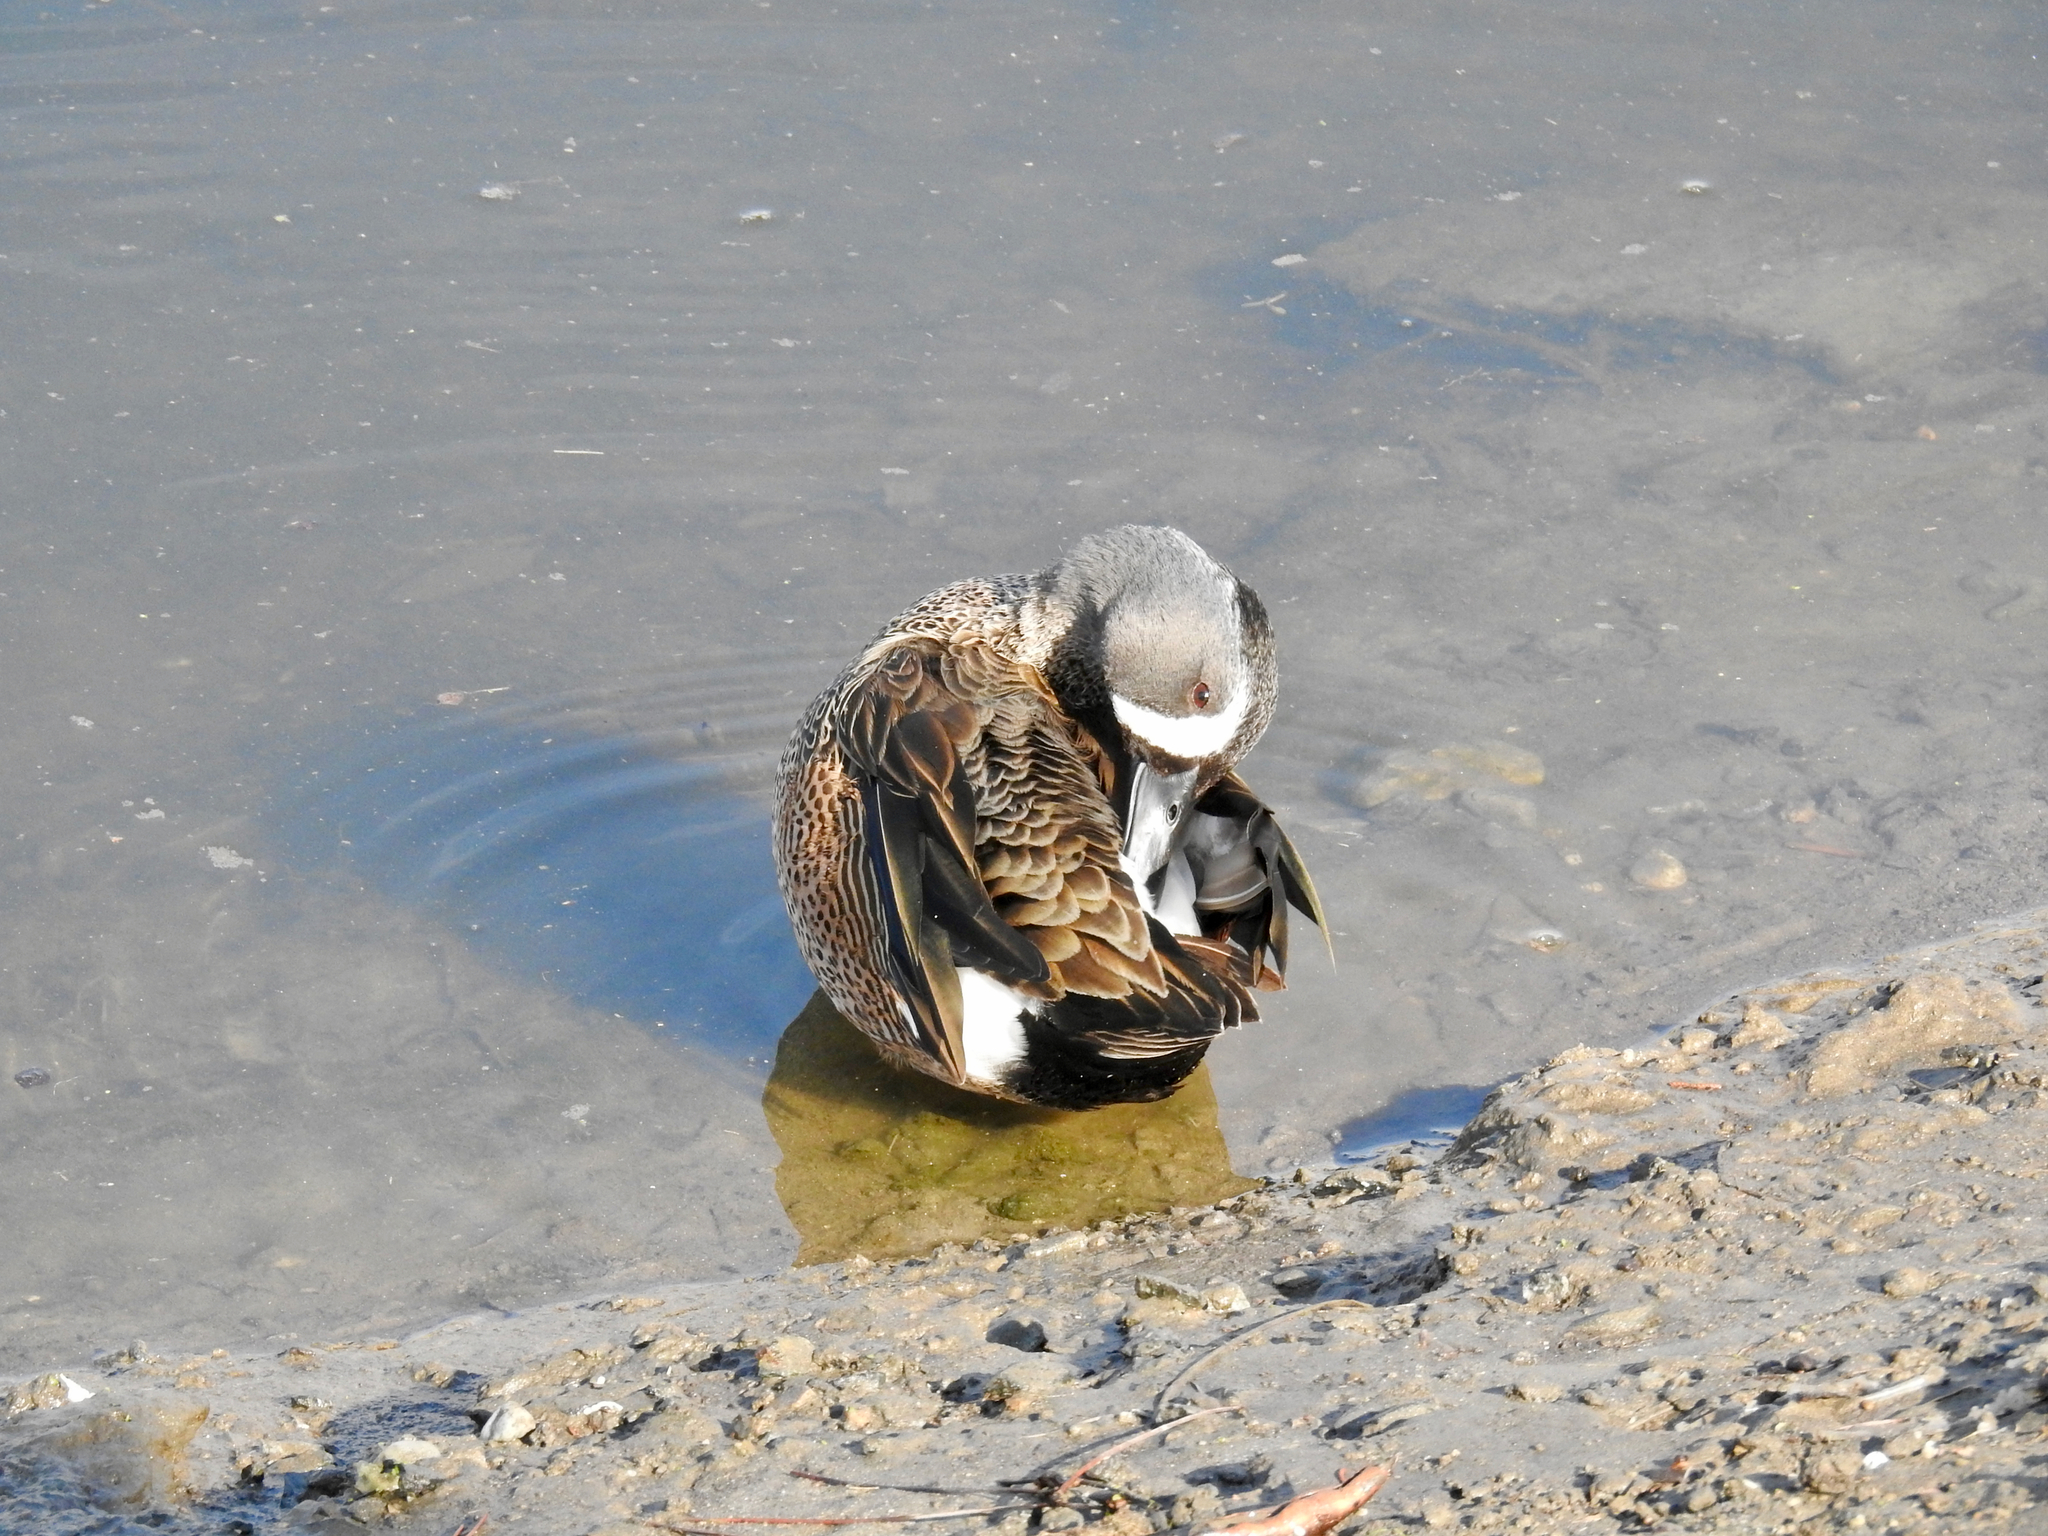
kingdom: Animalia
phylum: Chordata
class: Aves
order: Anseriformes
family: Anatidae
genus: Spatula
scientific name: Spatula discors
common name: Blue-winged teal
